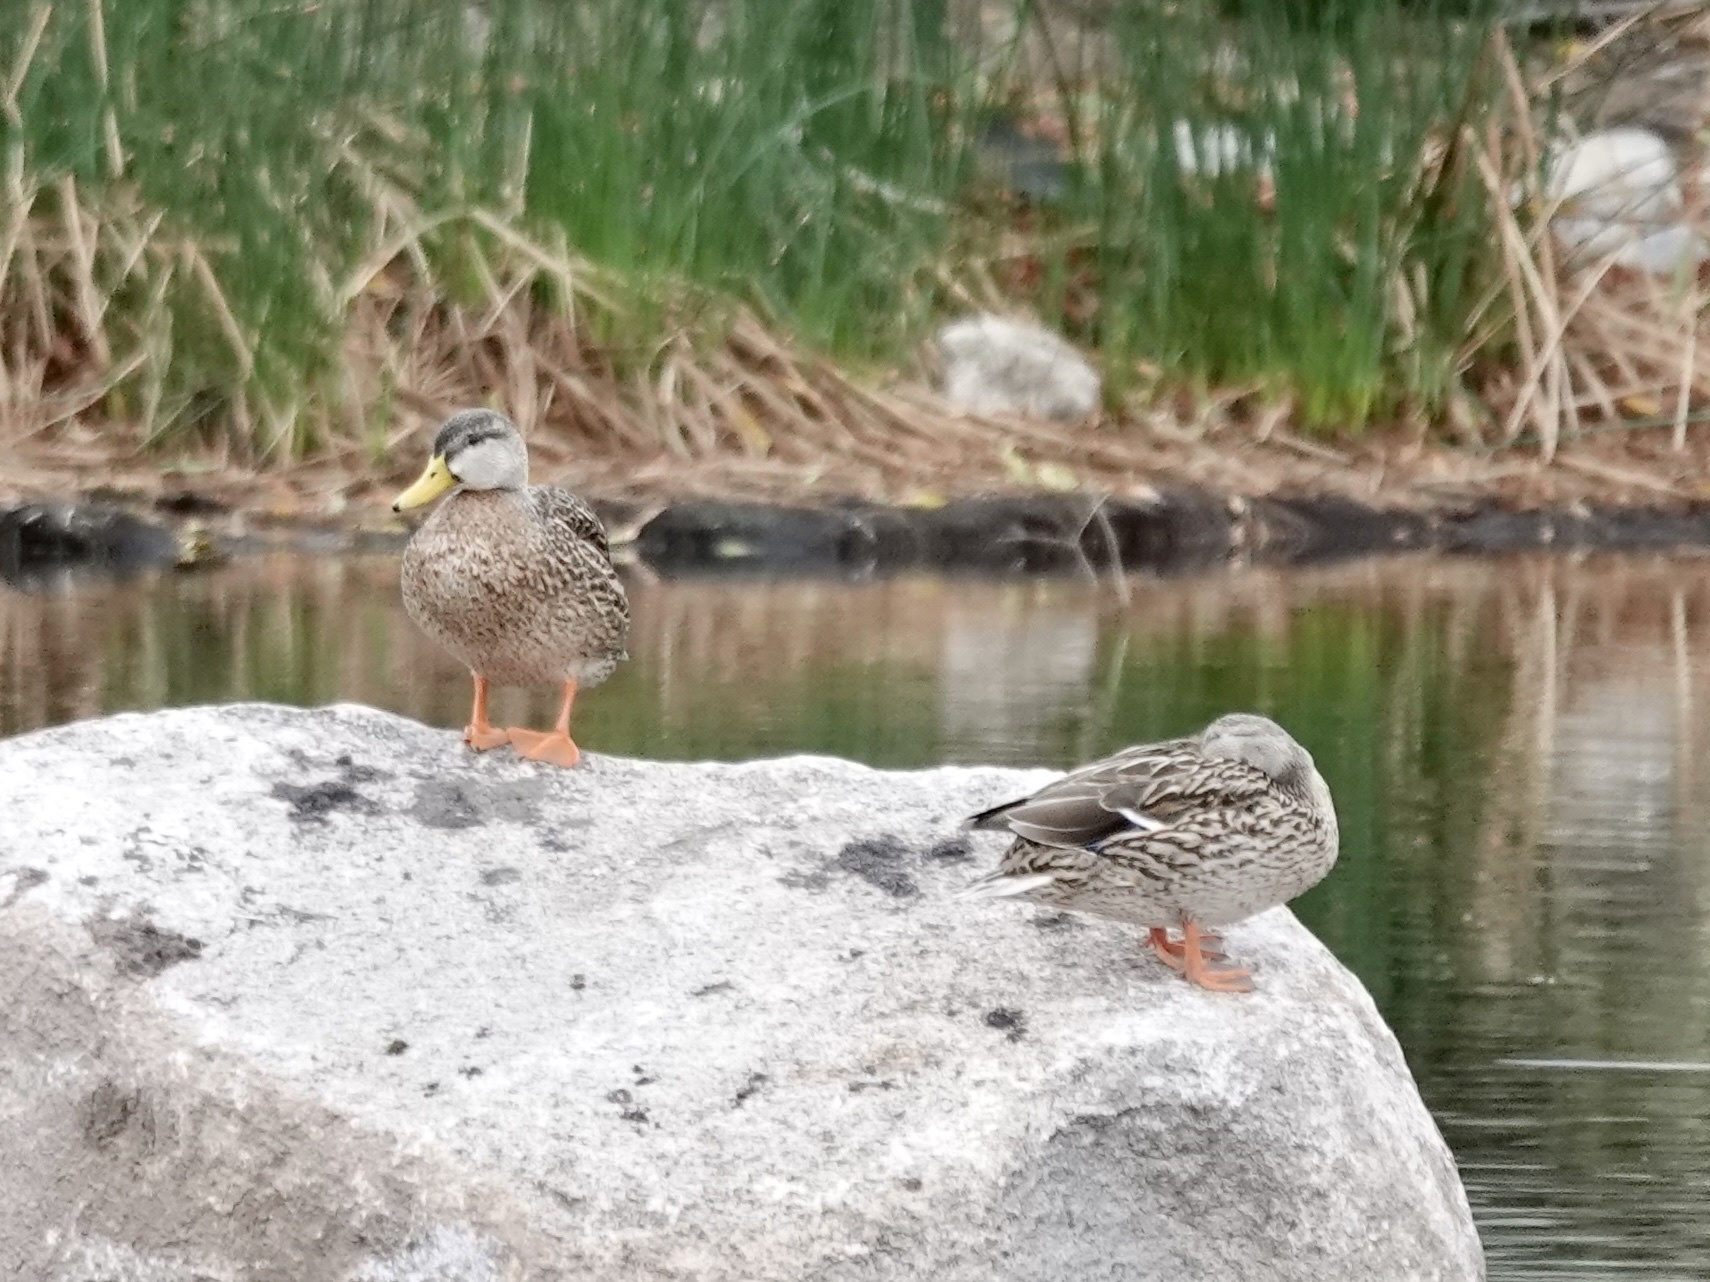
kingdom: Animalia
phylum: Chordata
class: Aves
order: Anseriformes
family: Anatidae
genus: Anas
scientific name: Anas
